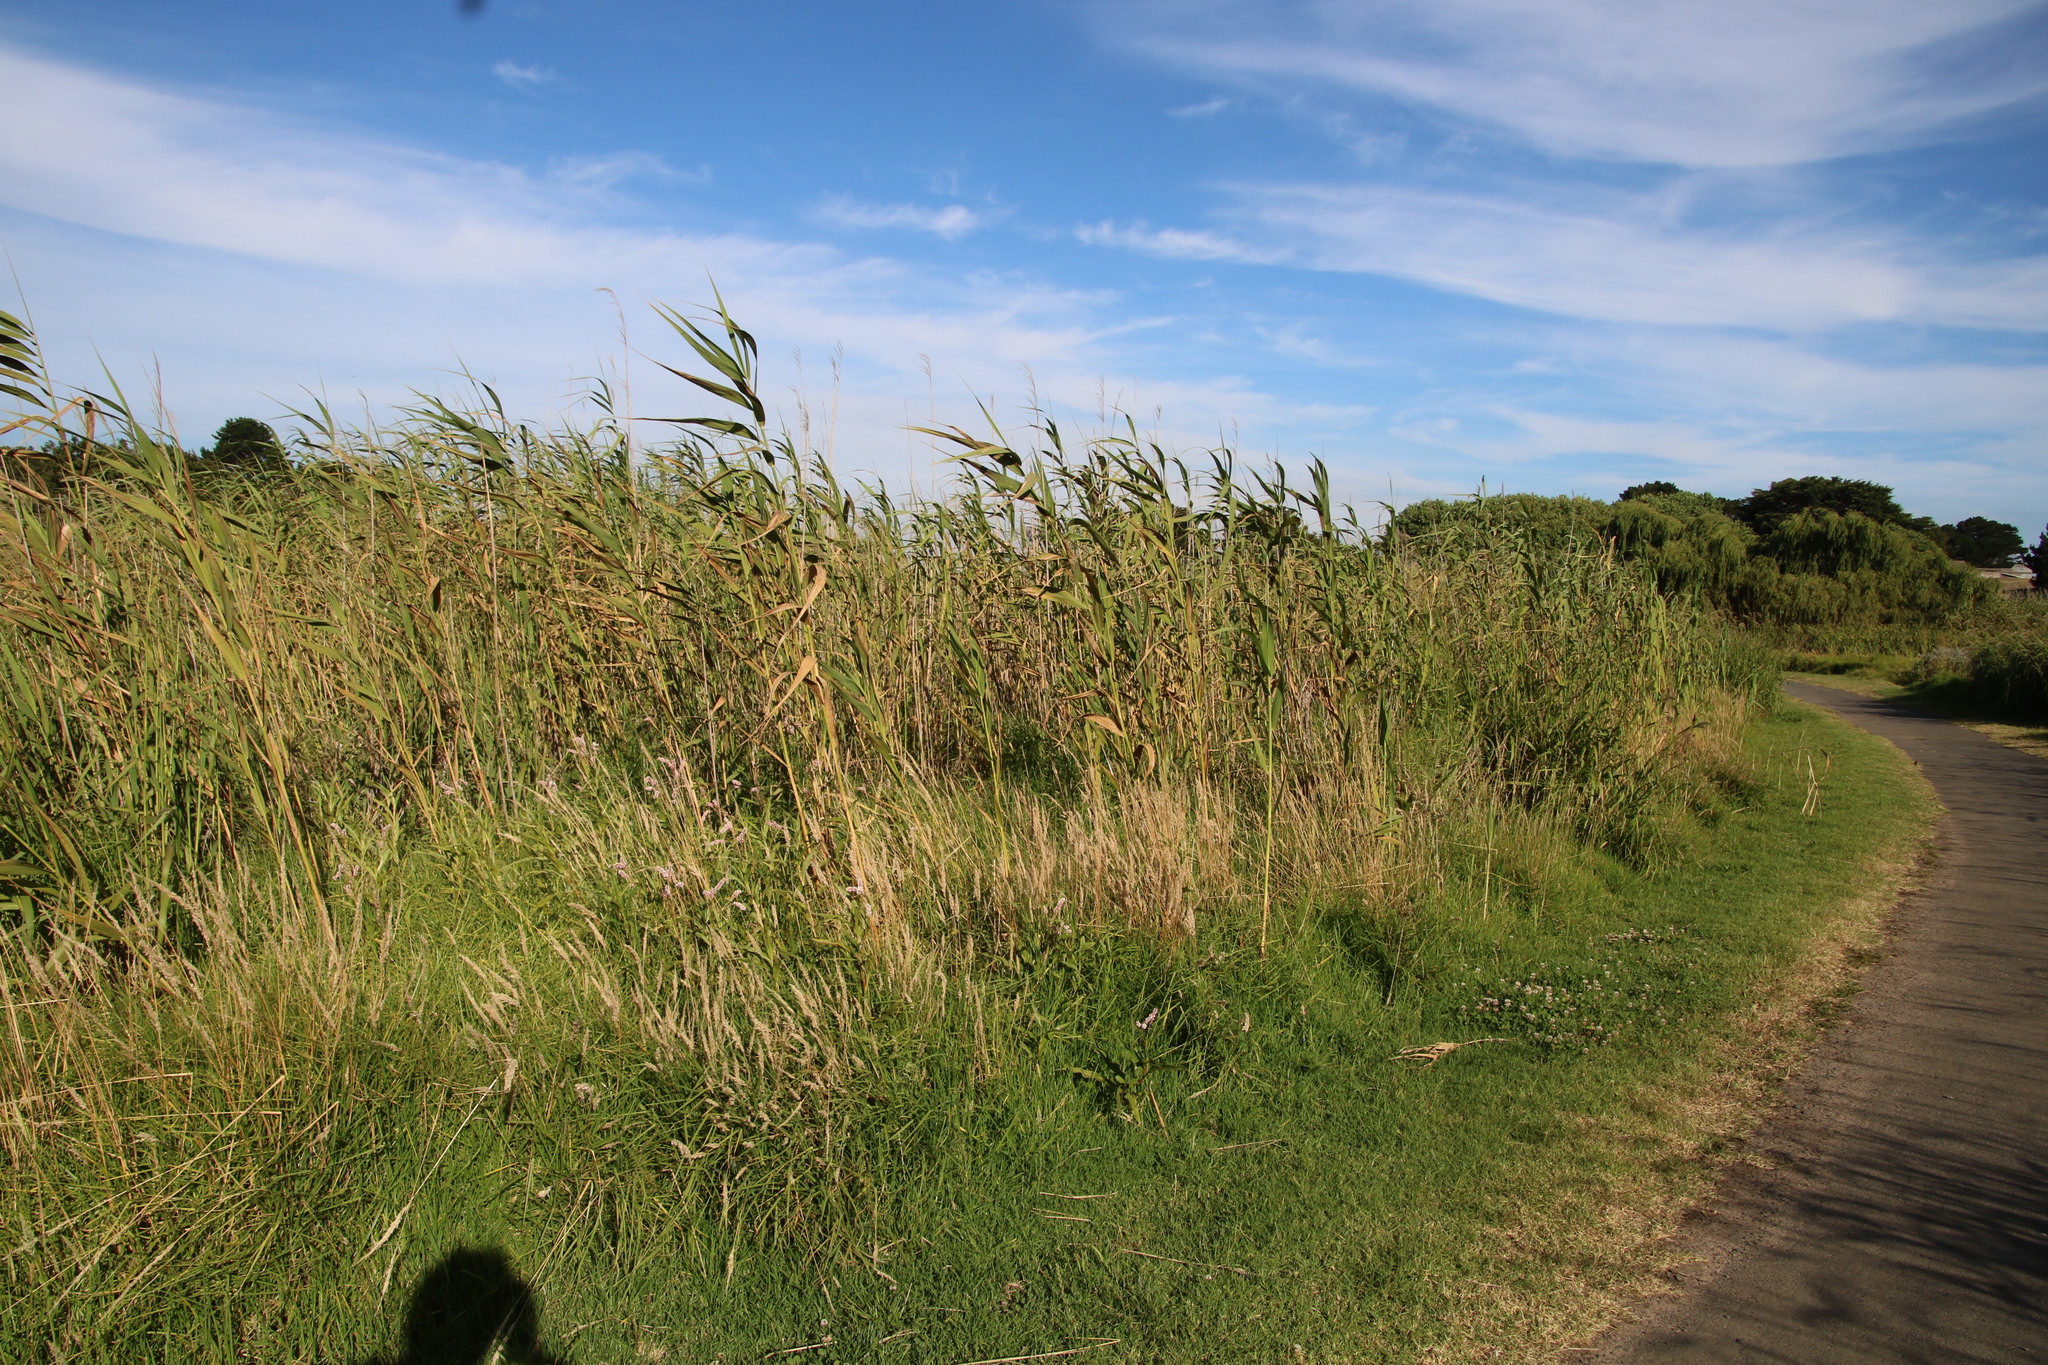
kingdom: Plantae
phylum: Tracheophyta
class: Liliopsida
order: Poales
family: Poaceae
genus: Phragmites
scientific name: Phragmites australis
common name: Common reed
